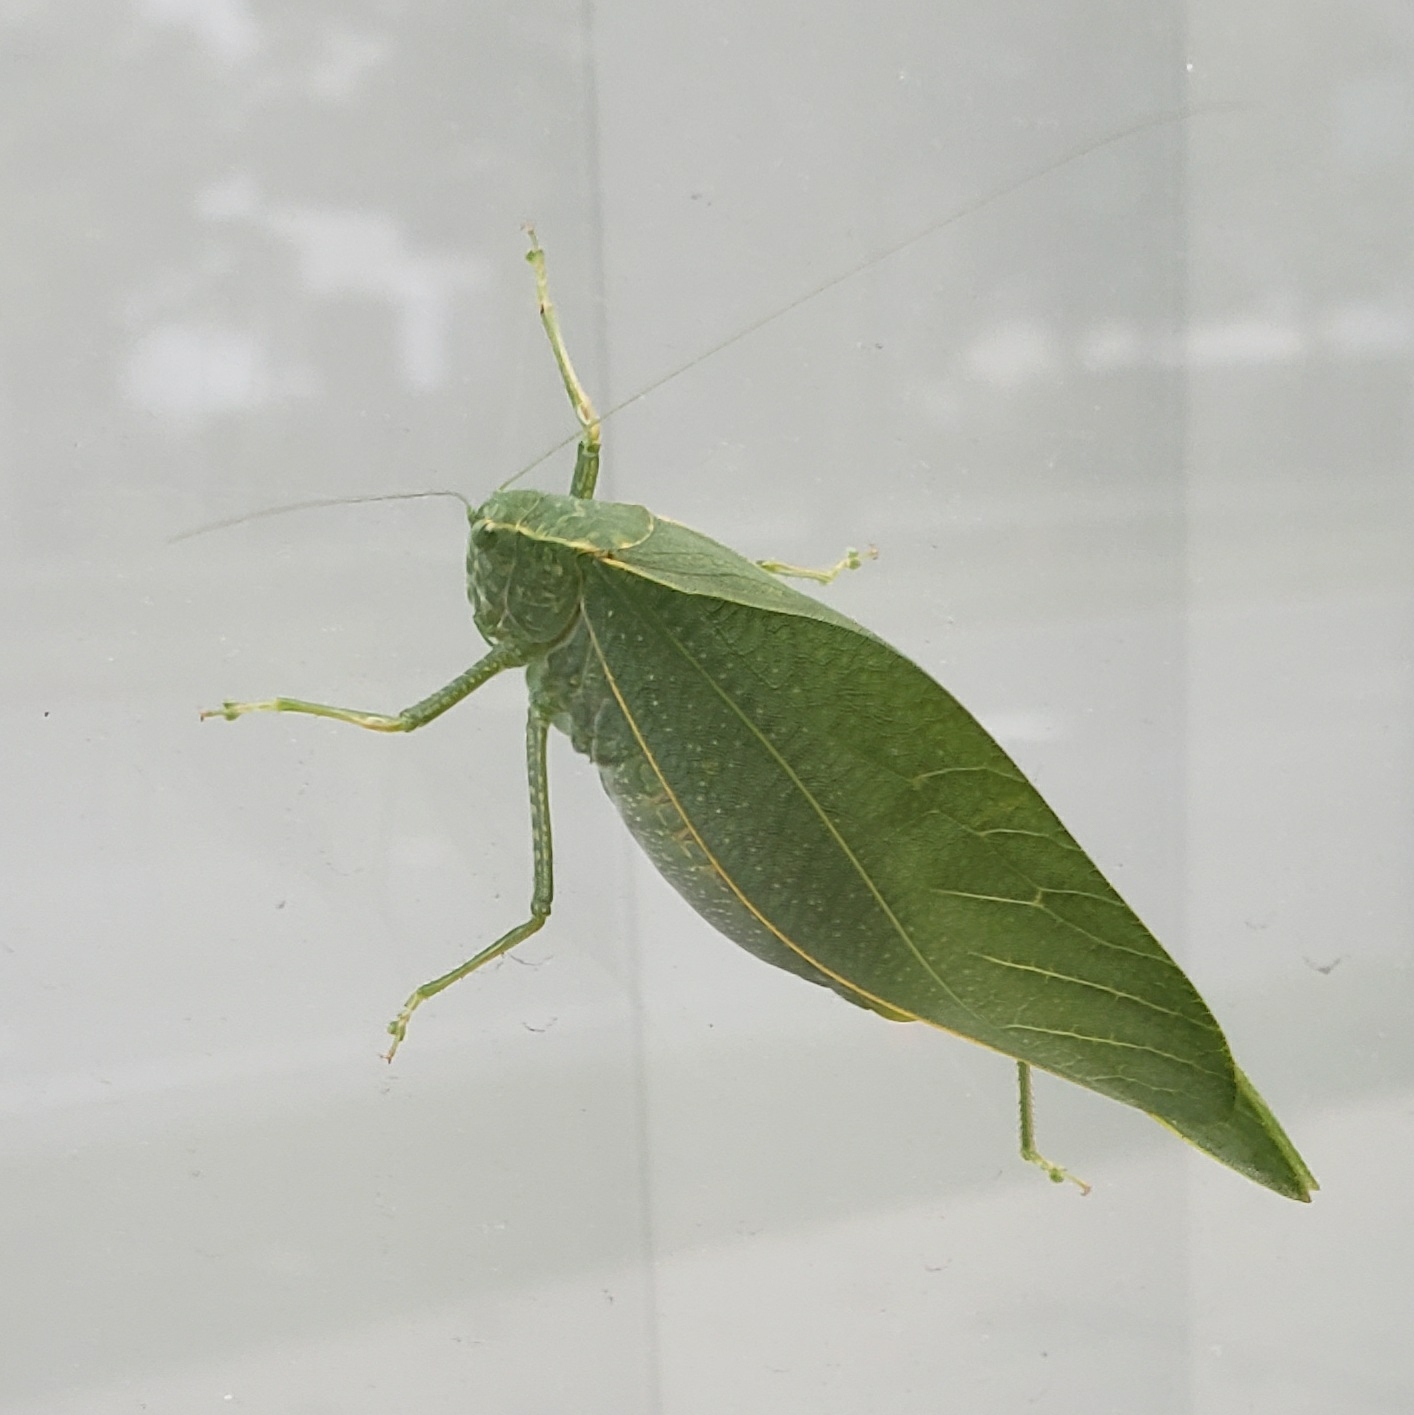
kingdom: Animalia
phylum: Arthropoda
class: Insecta
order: Orthoptera
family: Tettigoniidae
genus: Microcentrum
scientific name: Microcentrum rhombifolium
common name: Broad-winged katydid
